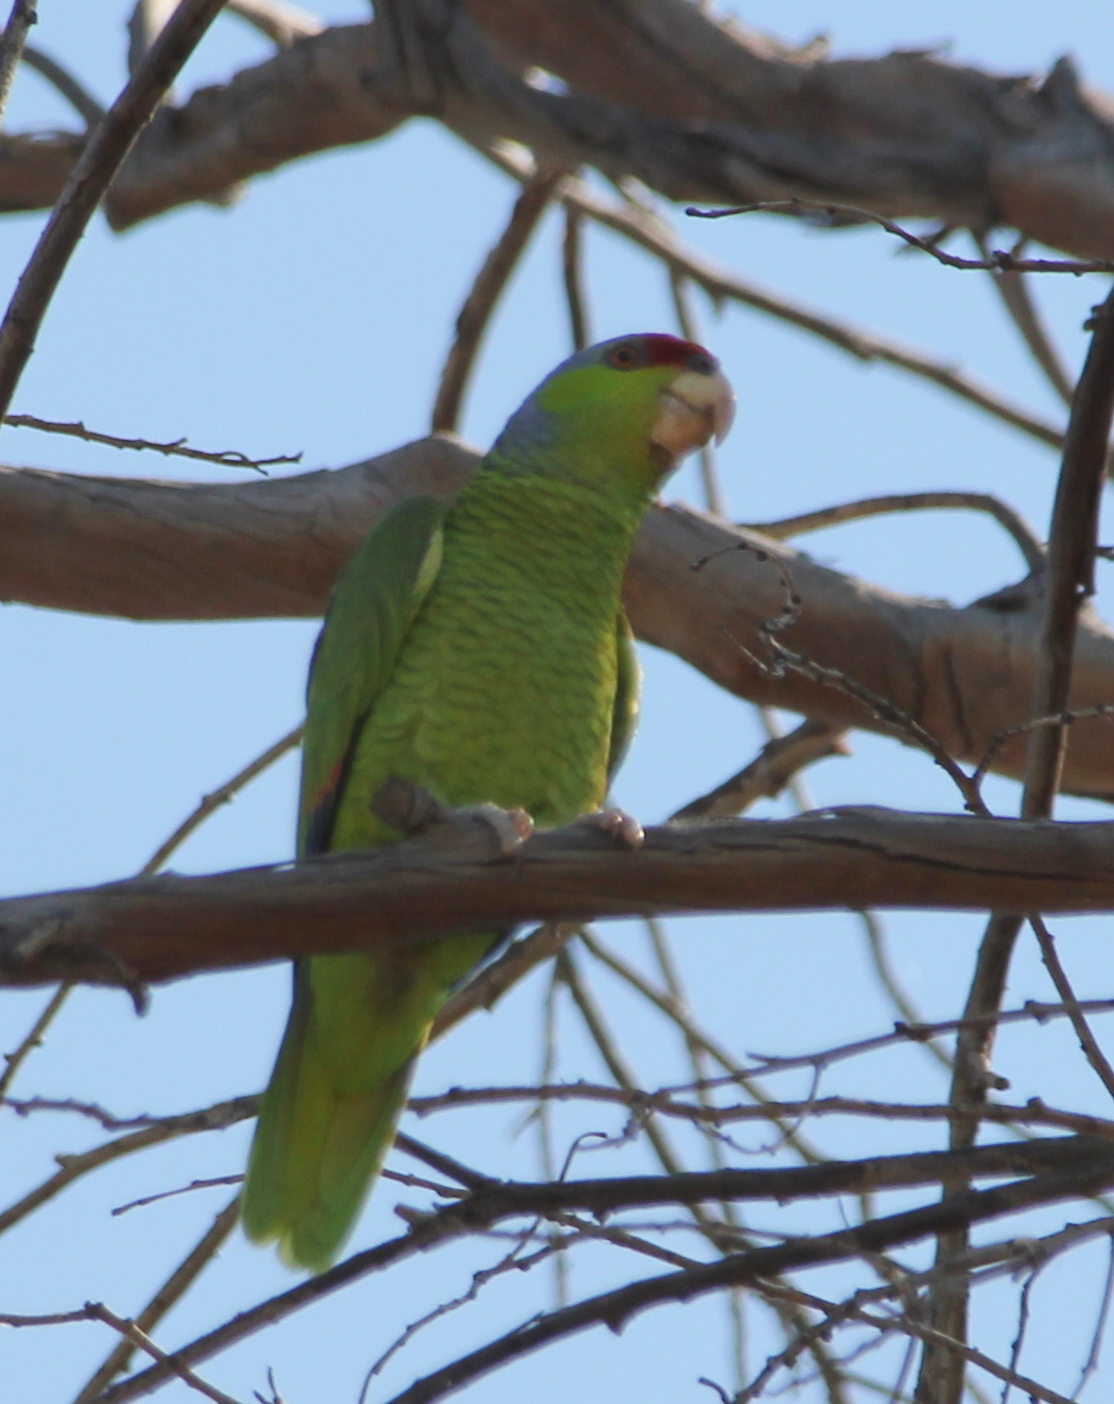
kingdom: Animalia
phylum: Chordata
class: Aves
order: Psittaciformes
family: Psittacidae
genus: Amazona
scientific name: Amazona finschi
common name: Lilac-crowned amazon
